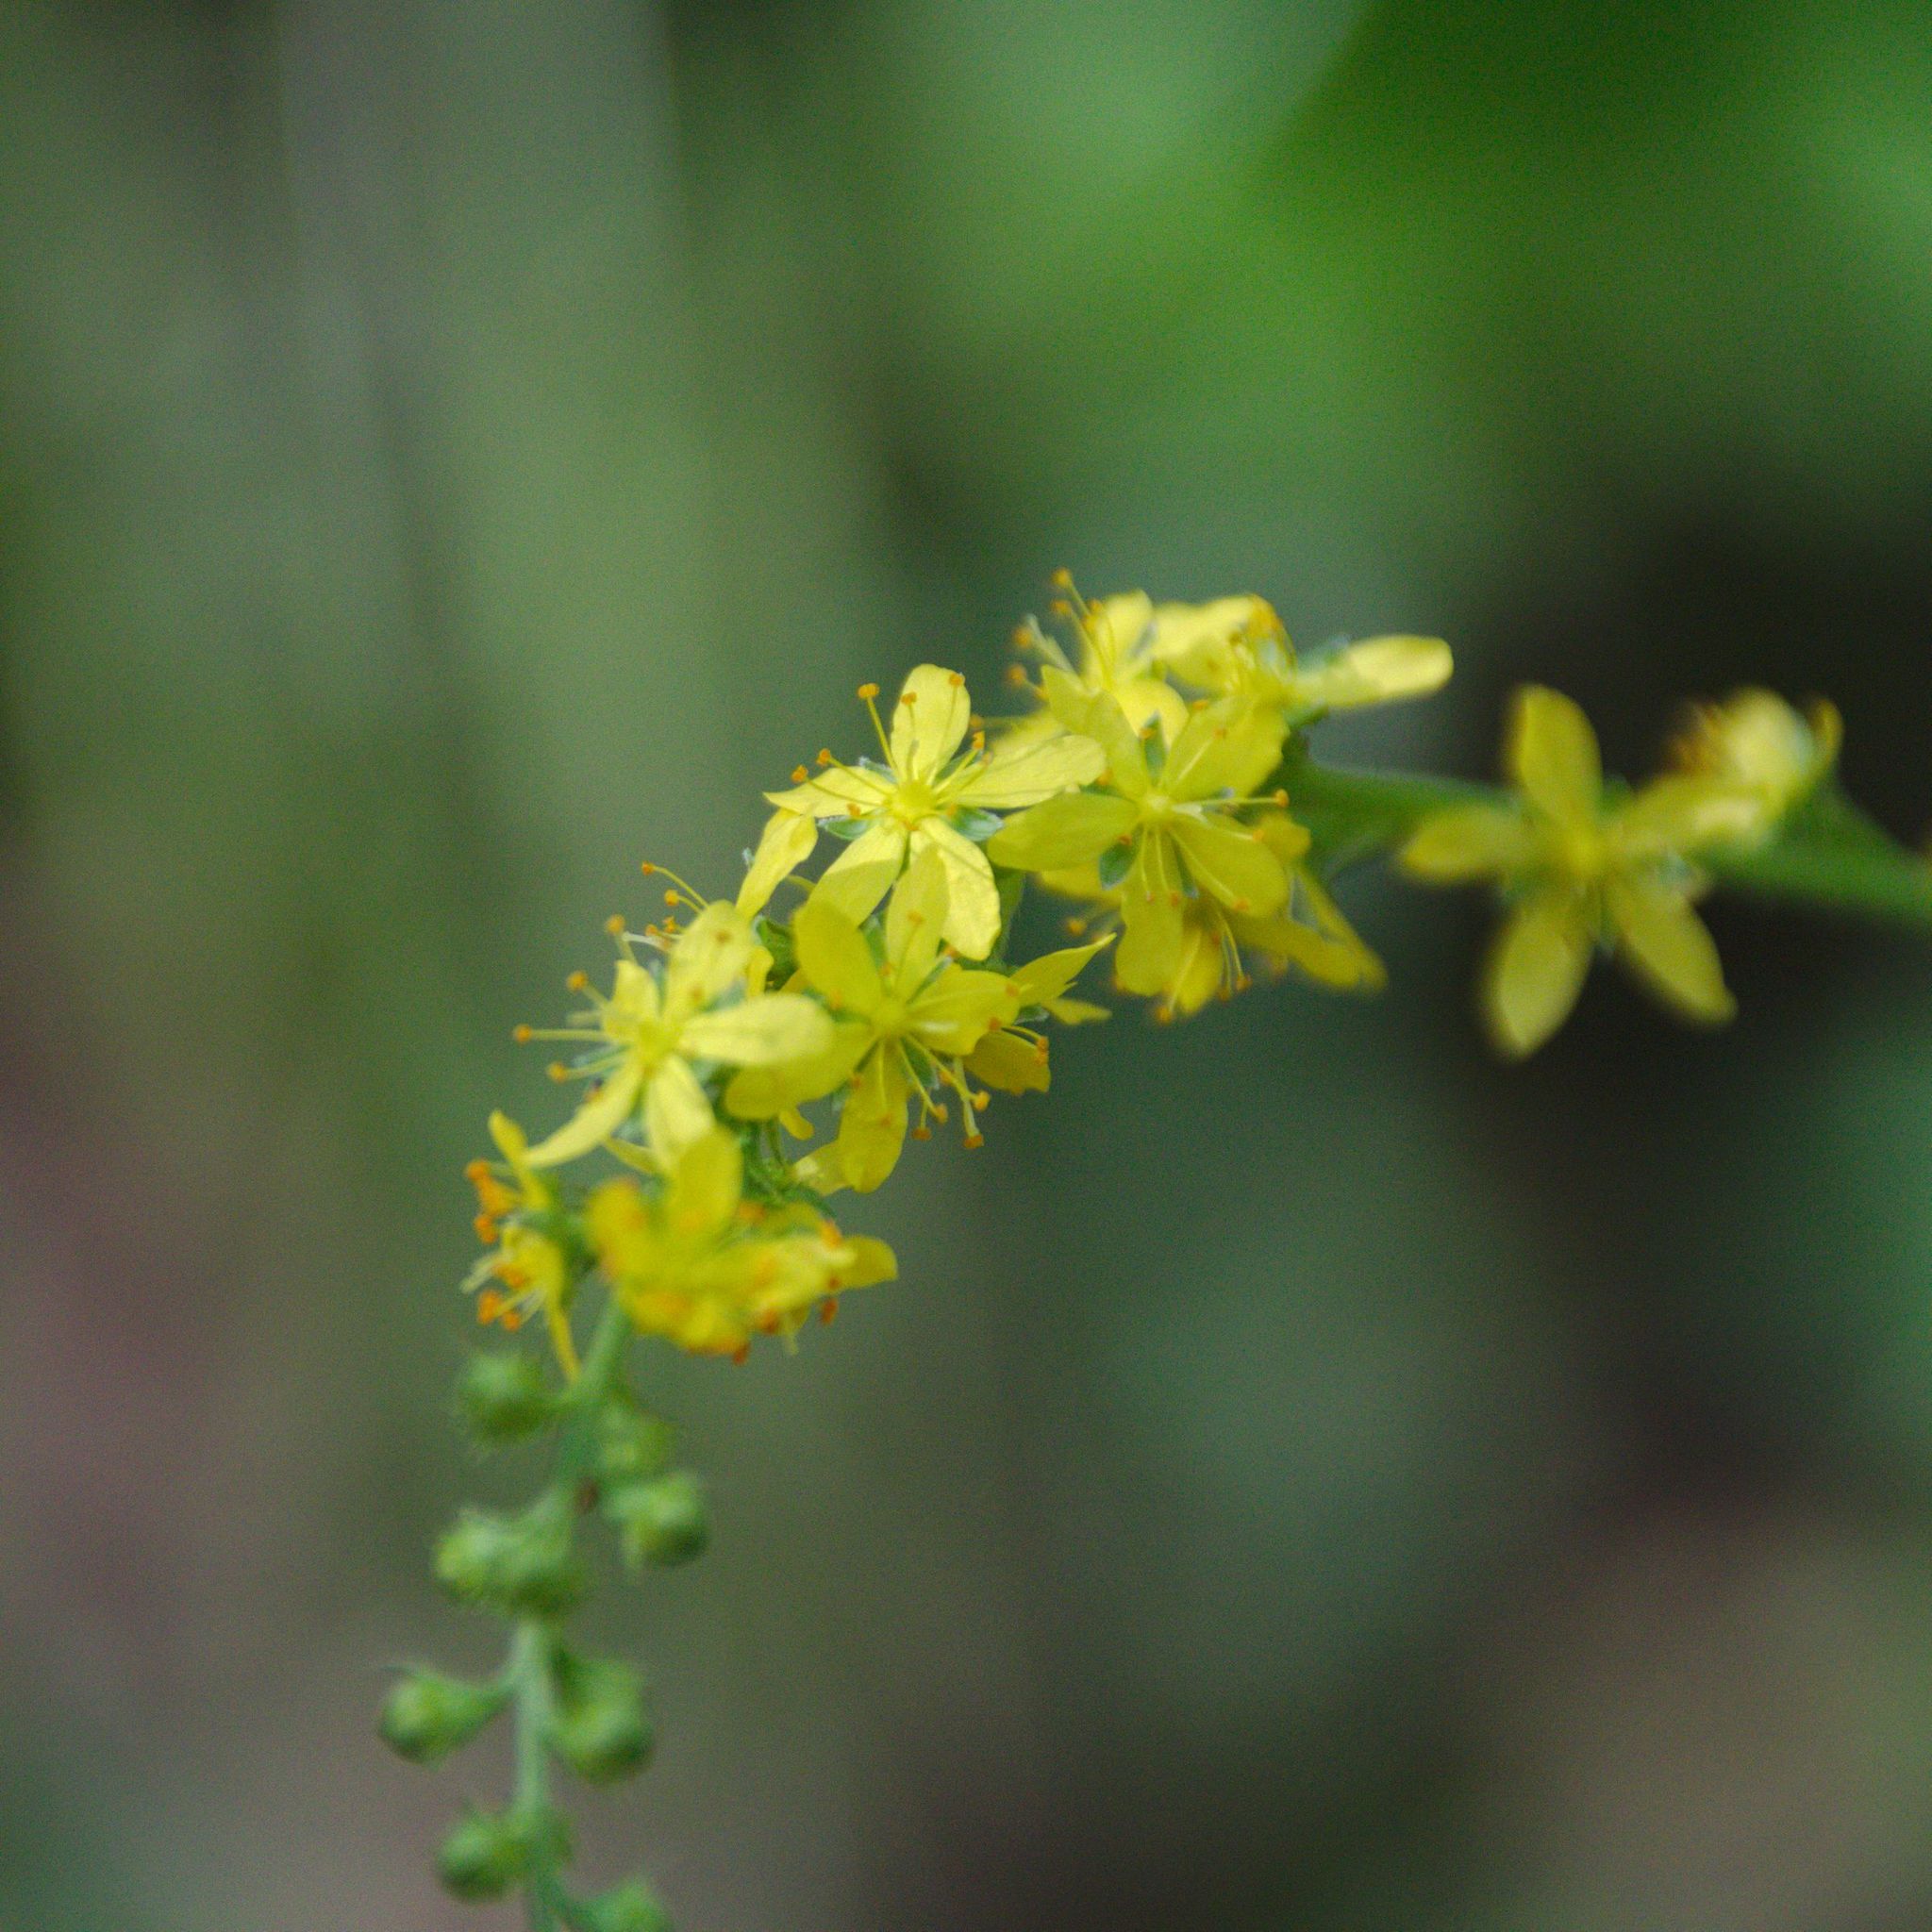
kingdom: Plantae
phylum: Tracheophyta
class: Magnoliopsida
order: Rosales
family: Rosaceae
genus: Agrimonia
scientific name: Agrimonia pilosa
